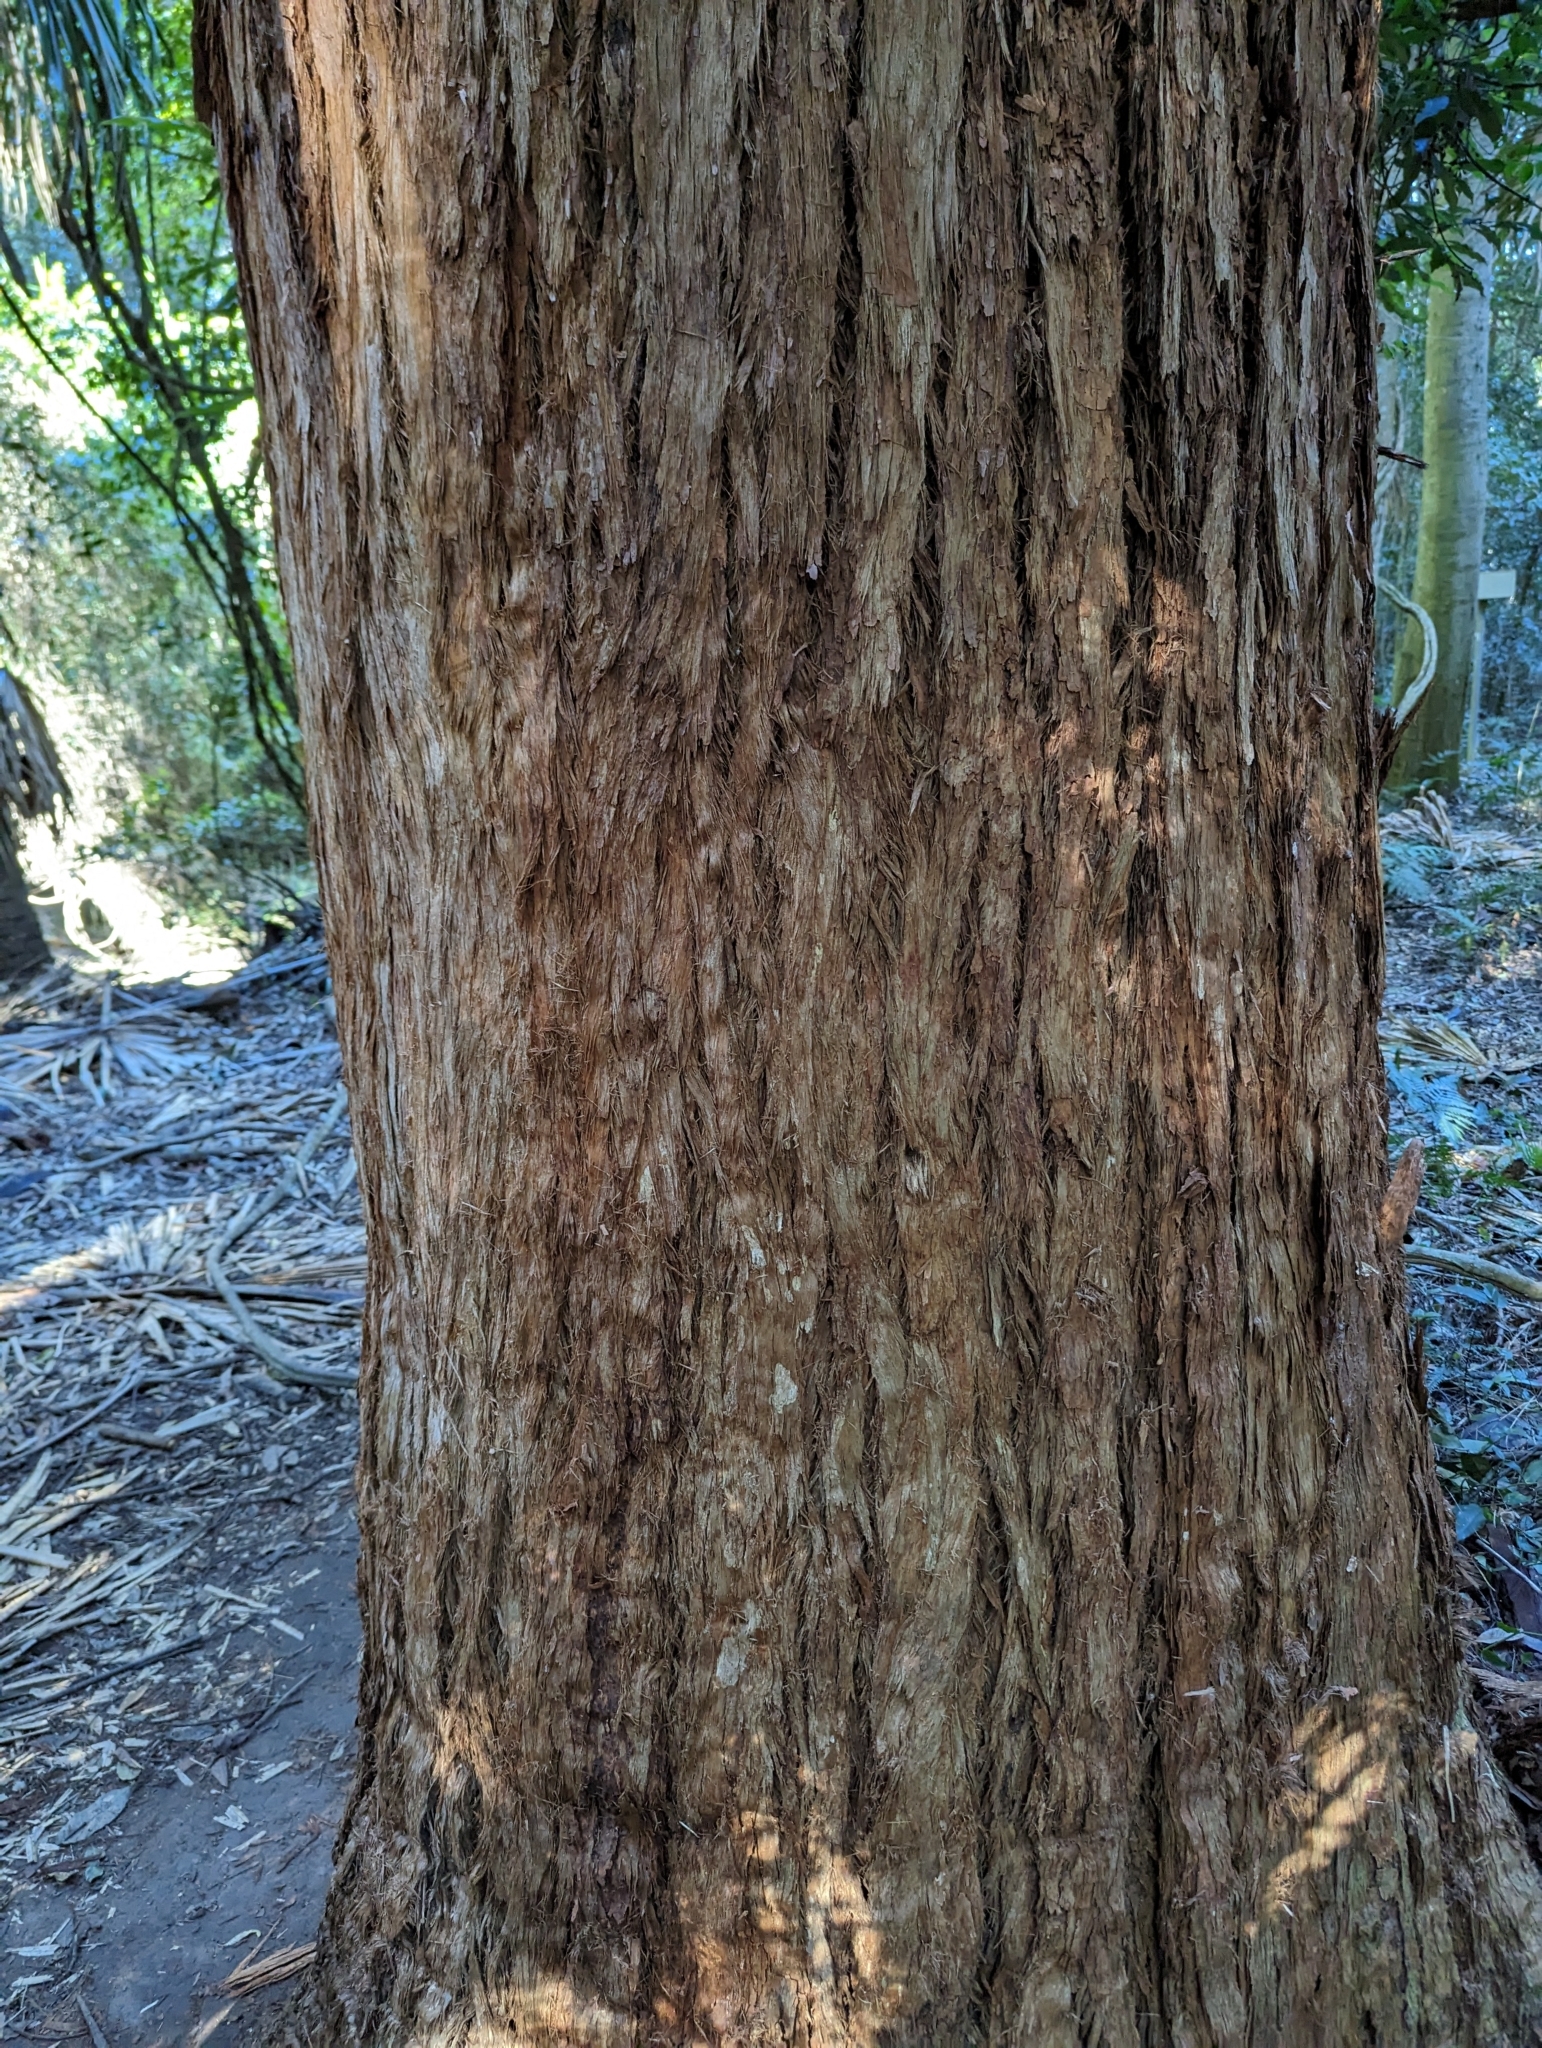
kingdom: Plantae
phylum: Tracheophyta
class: Magnoliopsida
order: Myrtales
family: Myrtaceae
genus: Eucalyptus
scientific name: Eucalyptus microcorys
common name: Tallowwood
